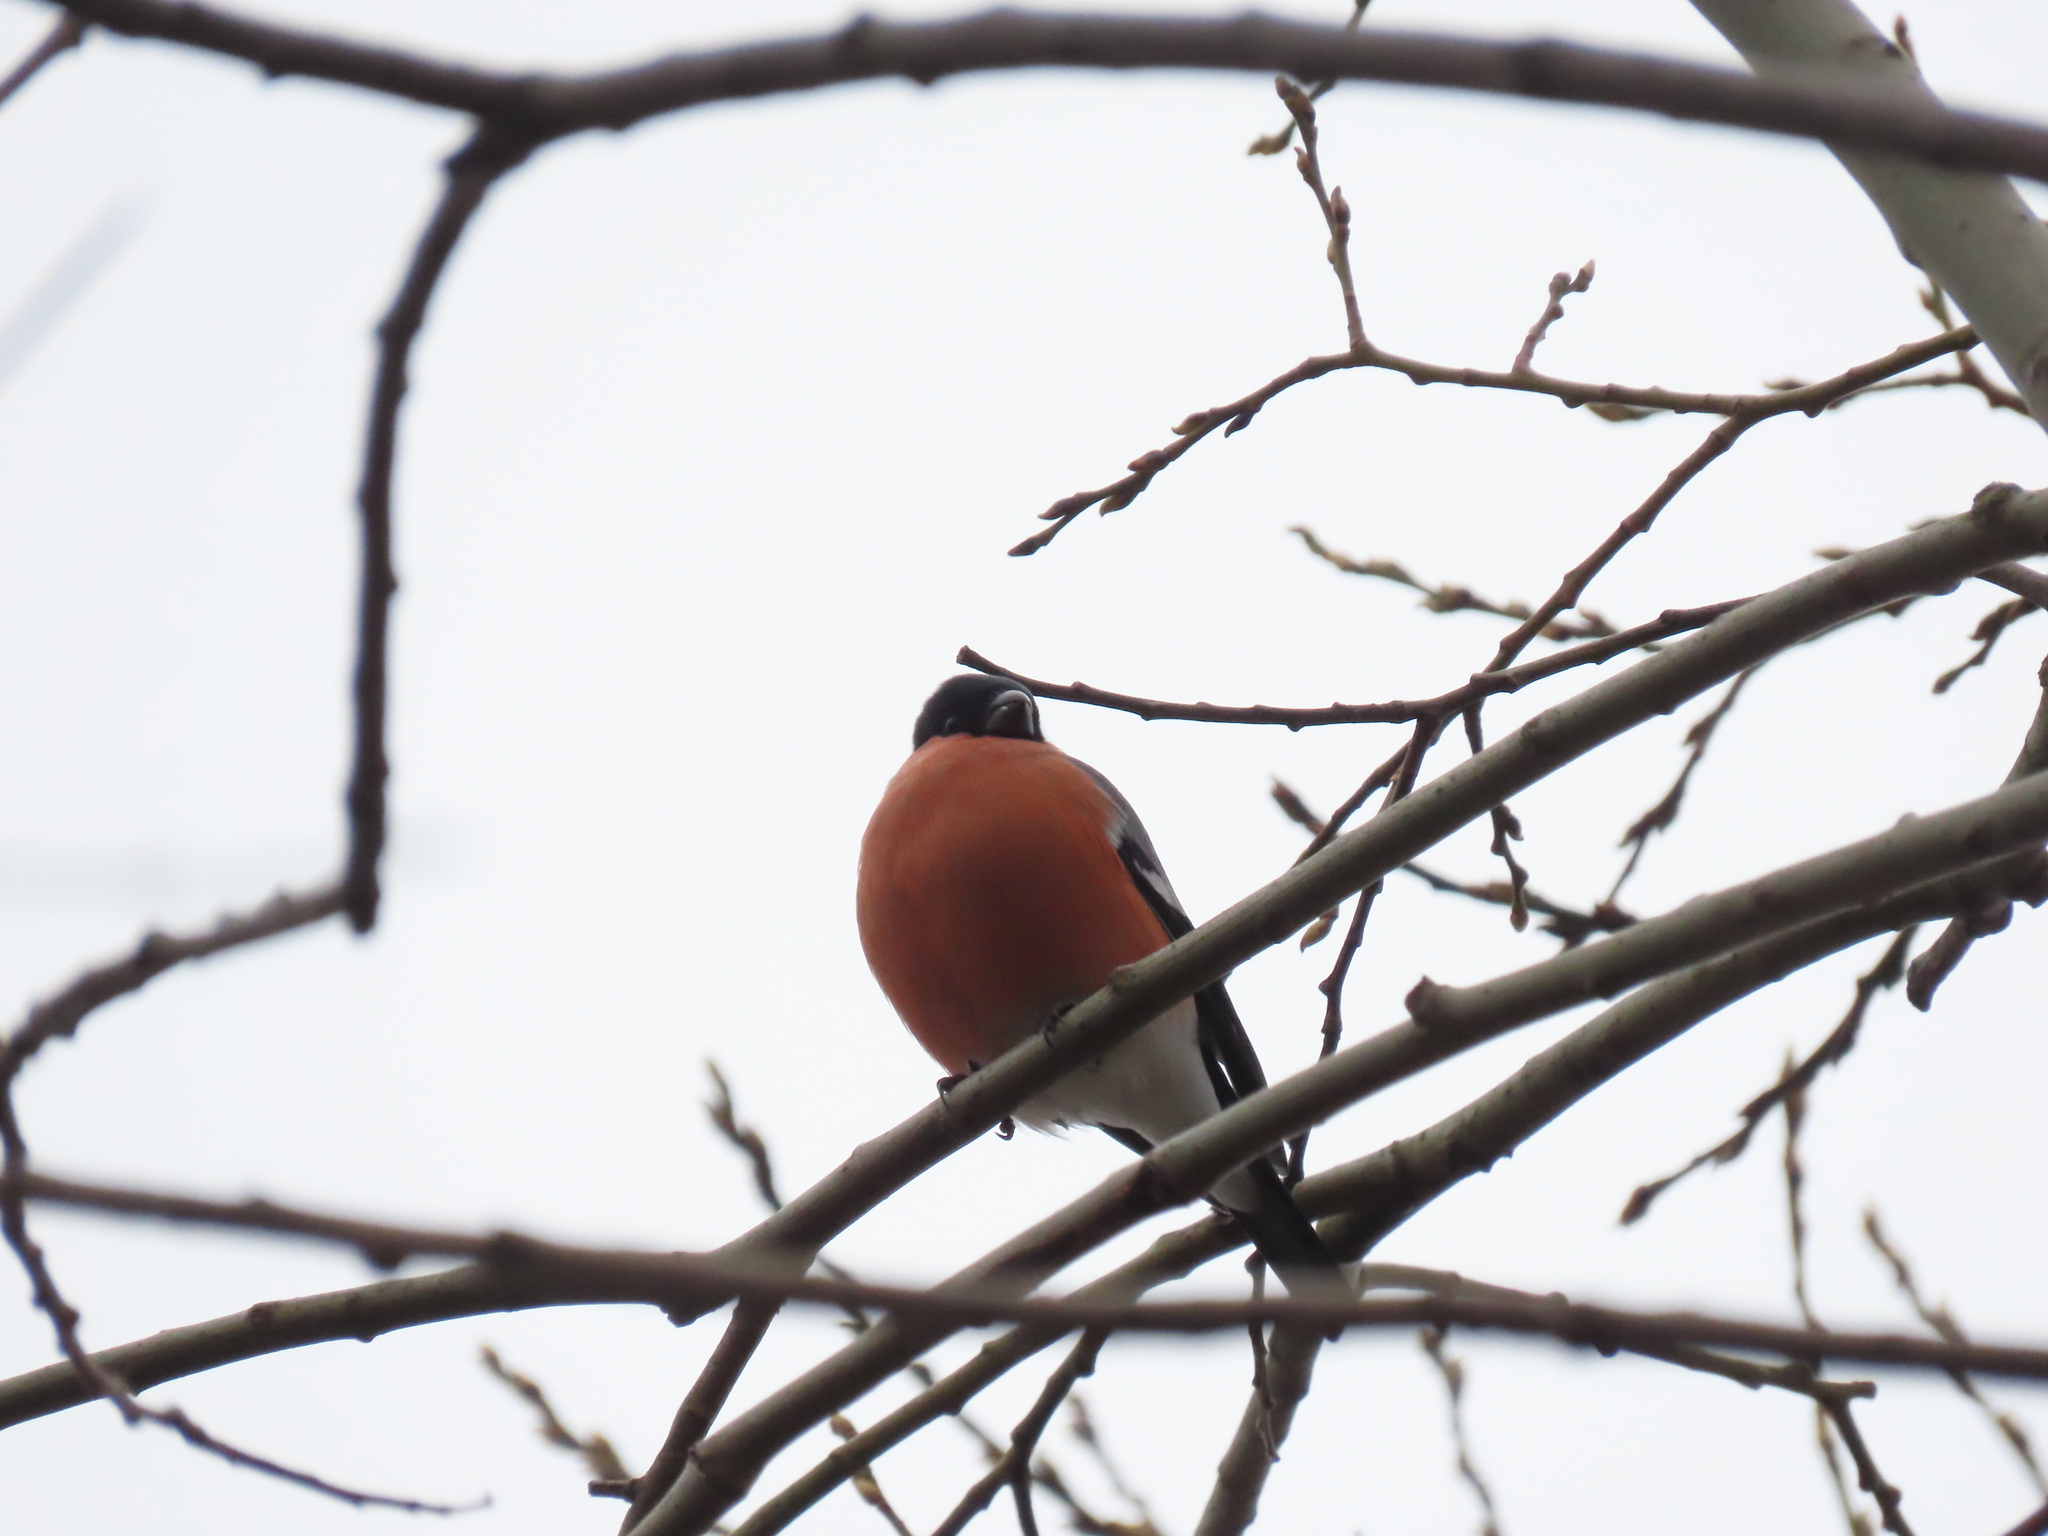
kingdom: Animalia
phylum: Chordata
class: Aves
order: Passeriformes
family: Fringillidae
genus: Pyrrhula
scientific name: Pyrrhula pyrrhula
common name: Eurasian bullfinch
